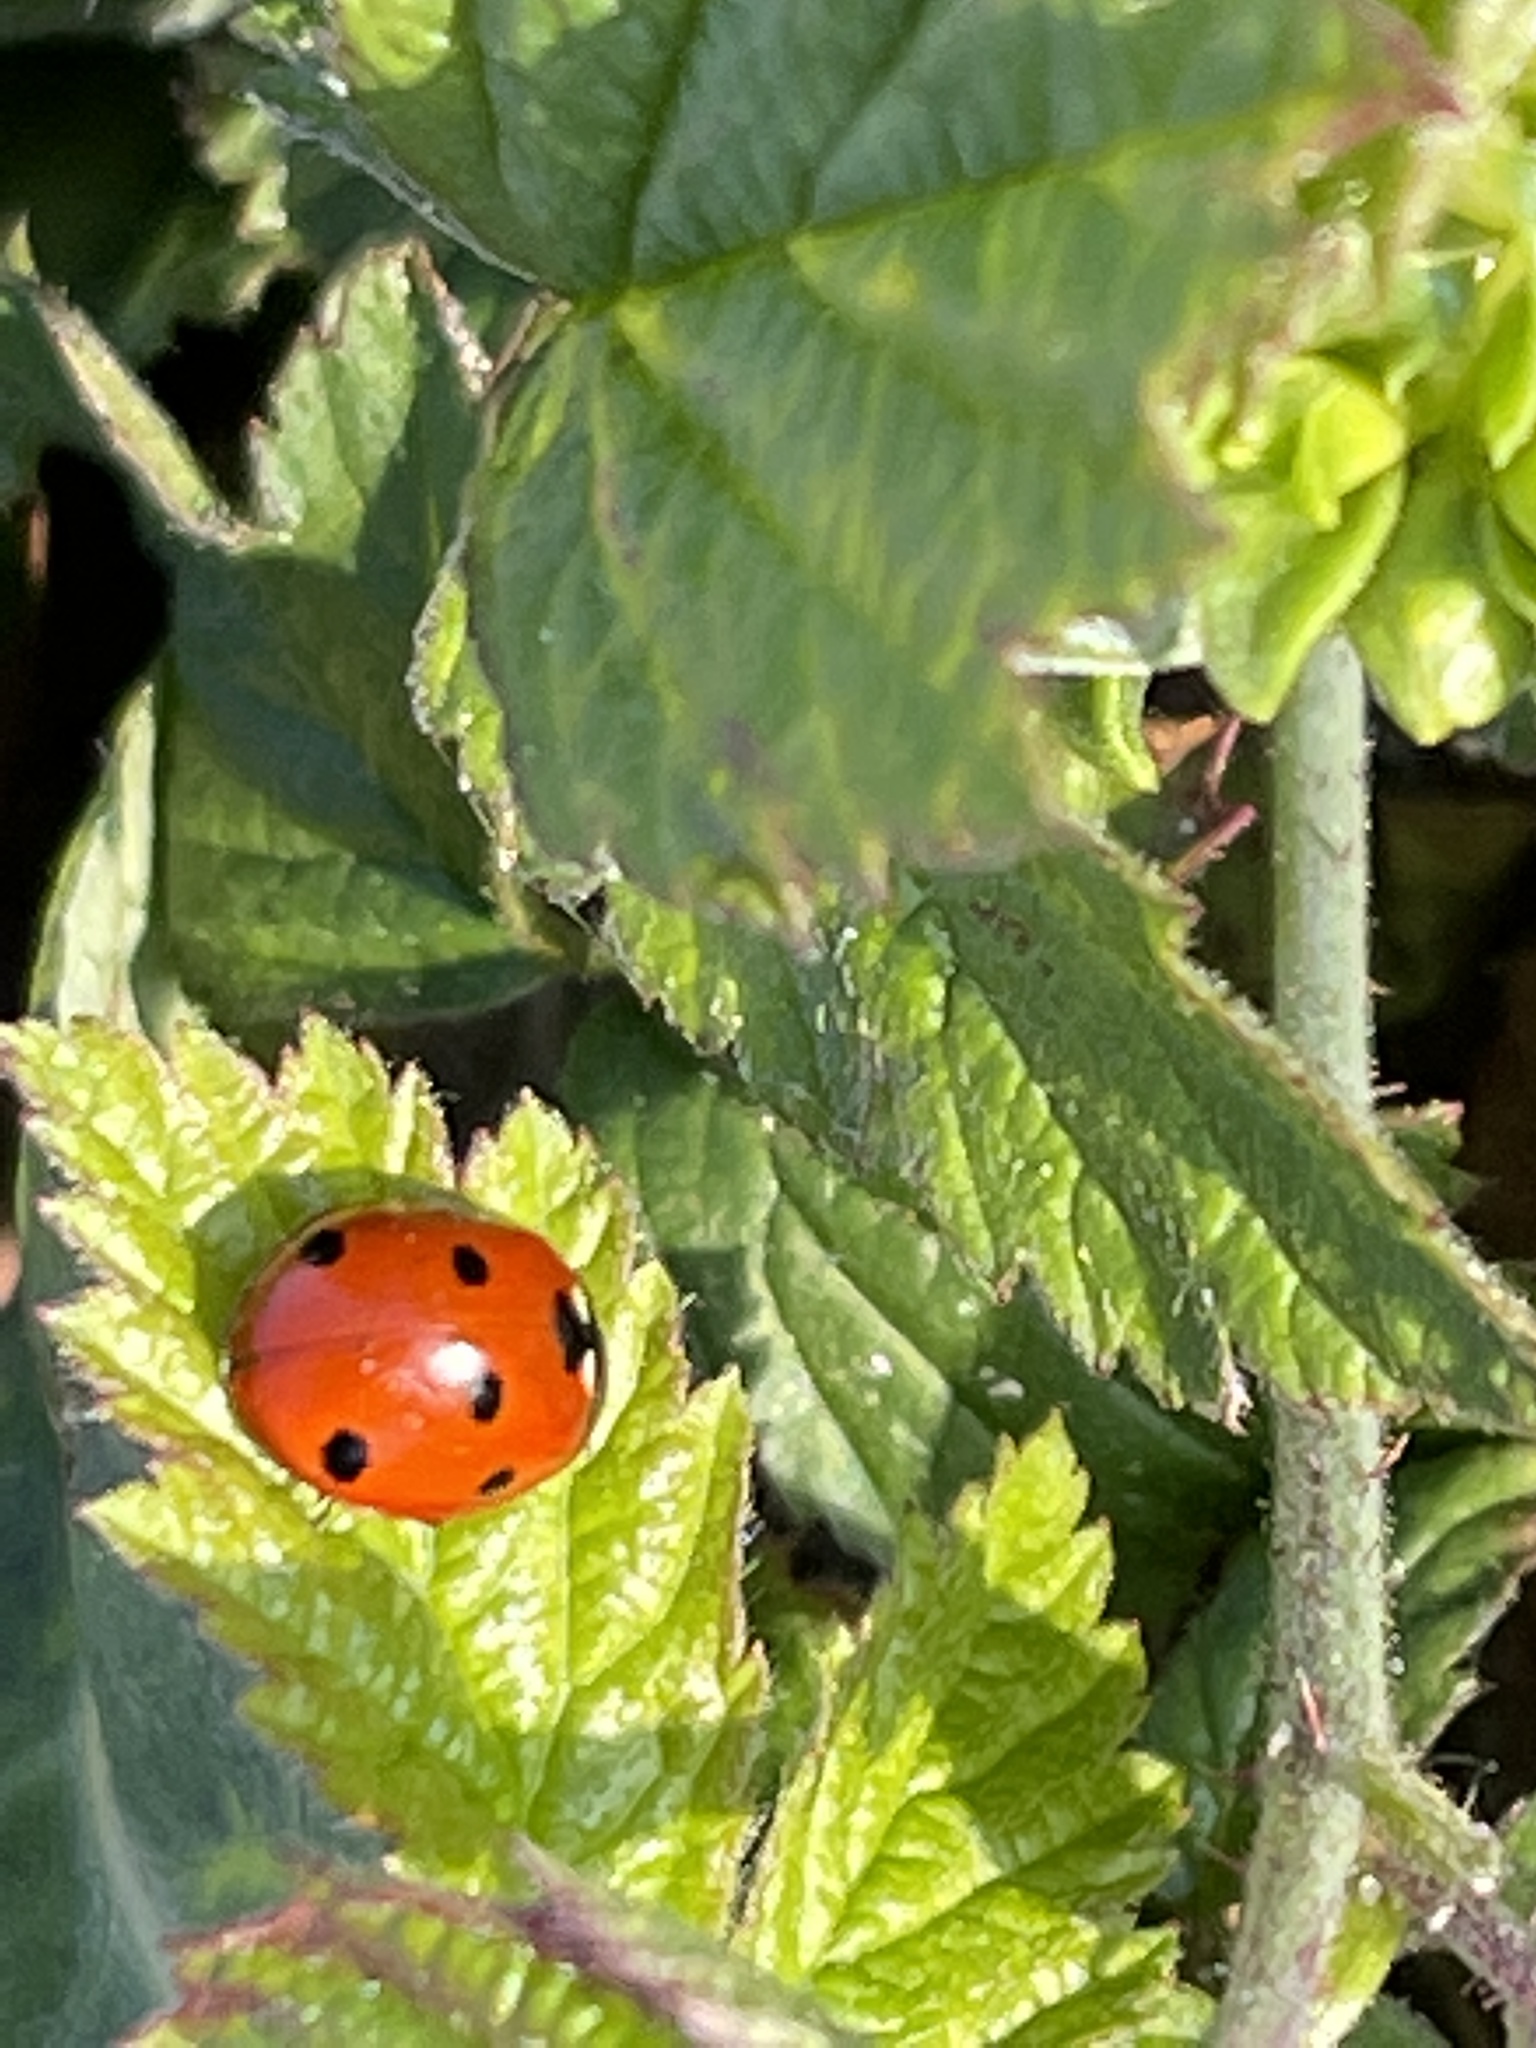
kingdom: Animalia
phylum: Arthropoda
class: Insecta
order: Coleoptera
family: Coccinellidae
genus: Coccinella
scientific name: Coccinella septempunctata
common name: Sevenspotted lady beetle
